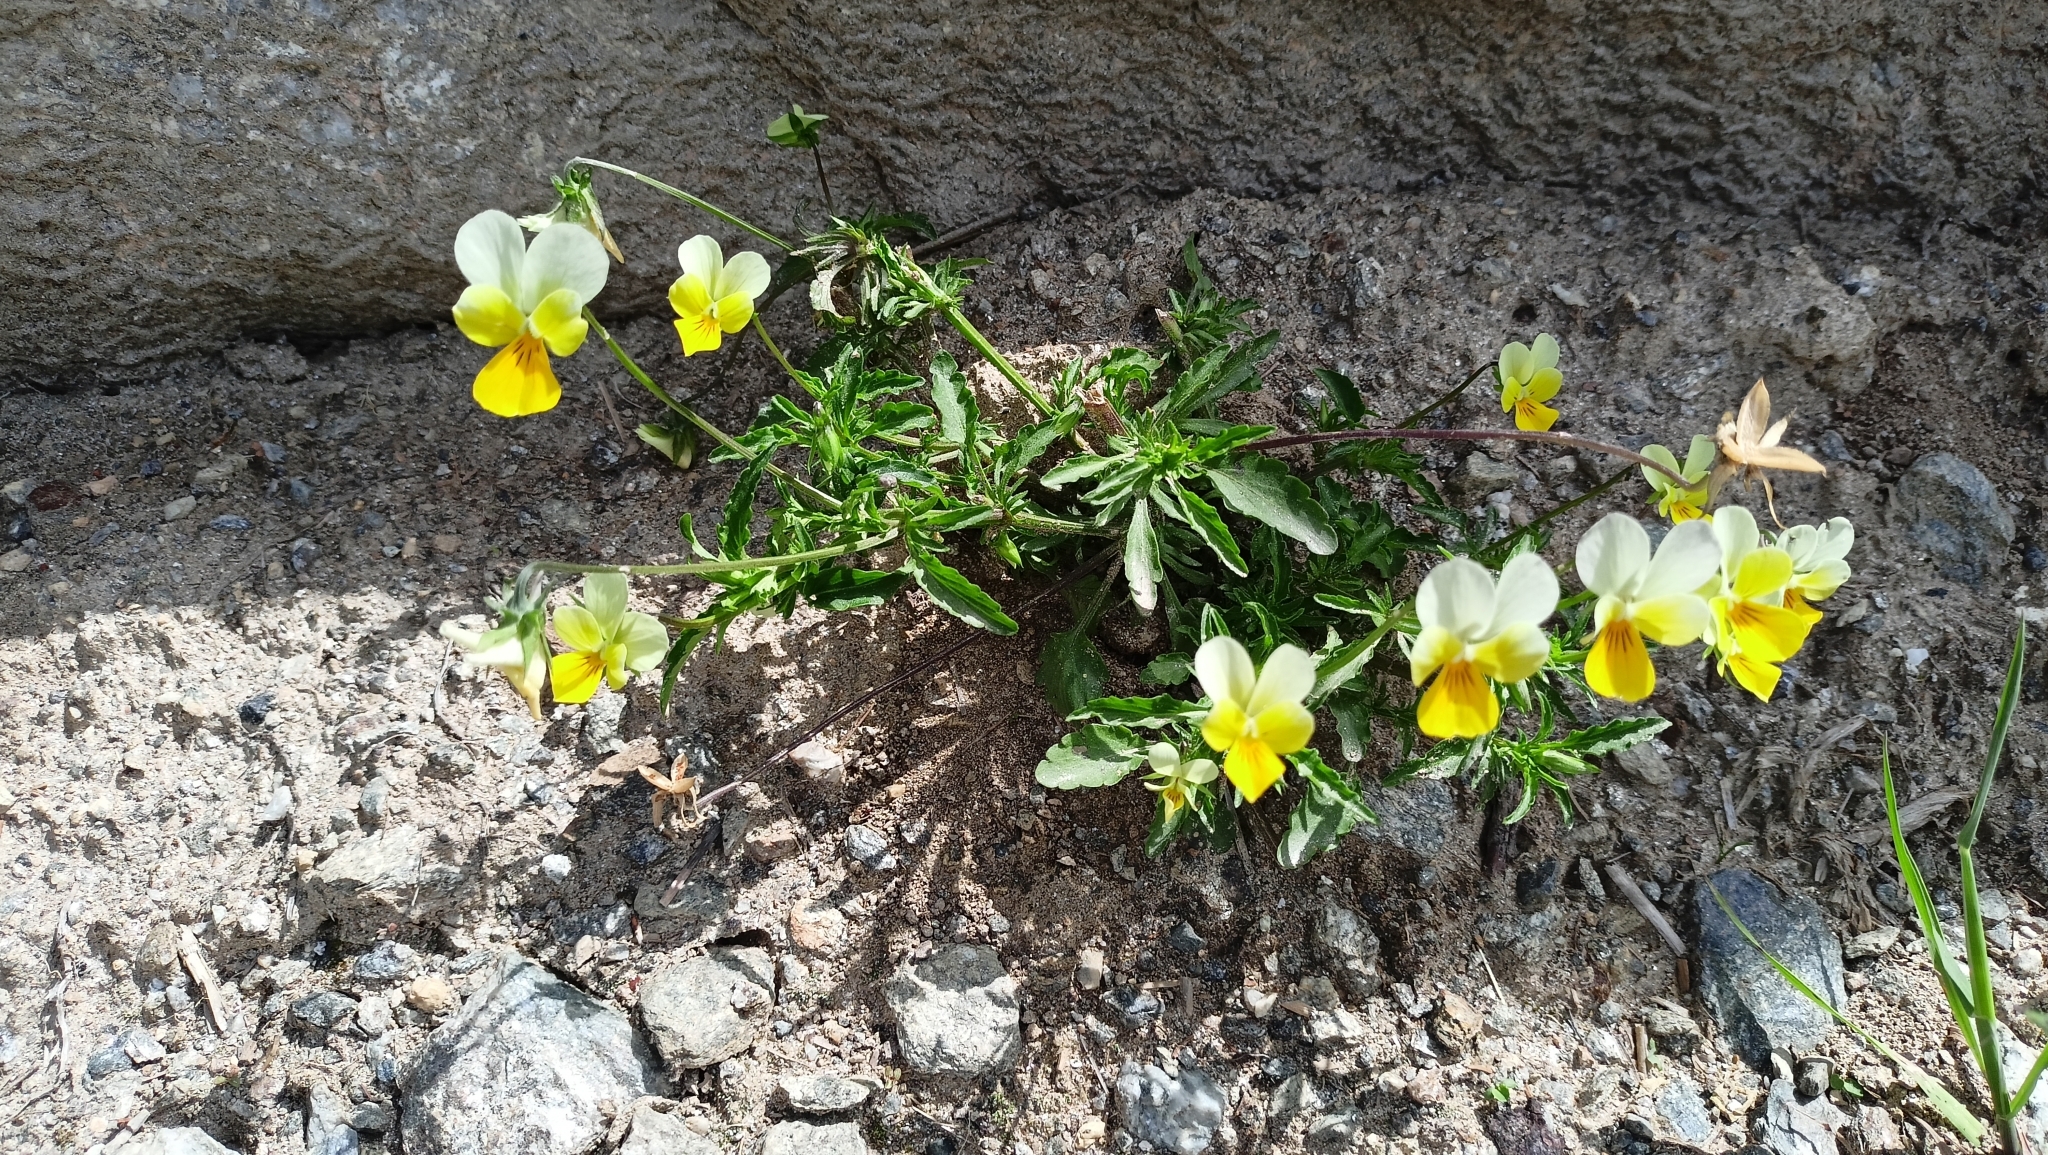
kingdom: Plantae
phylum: Tracheophyta
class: Magnoliopsida
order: Malpighiales
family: Violaceae
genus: Viola
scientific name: Viola tricolor
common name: Pansy
